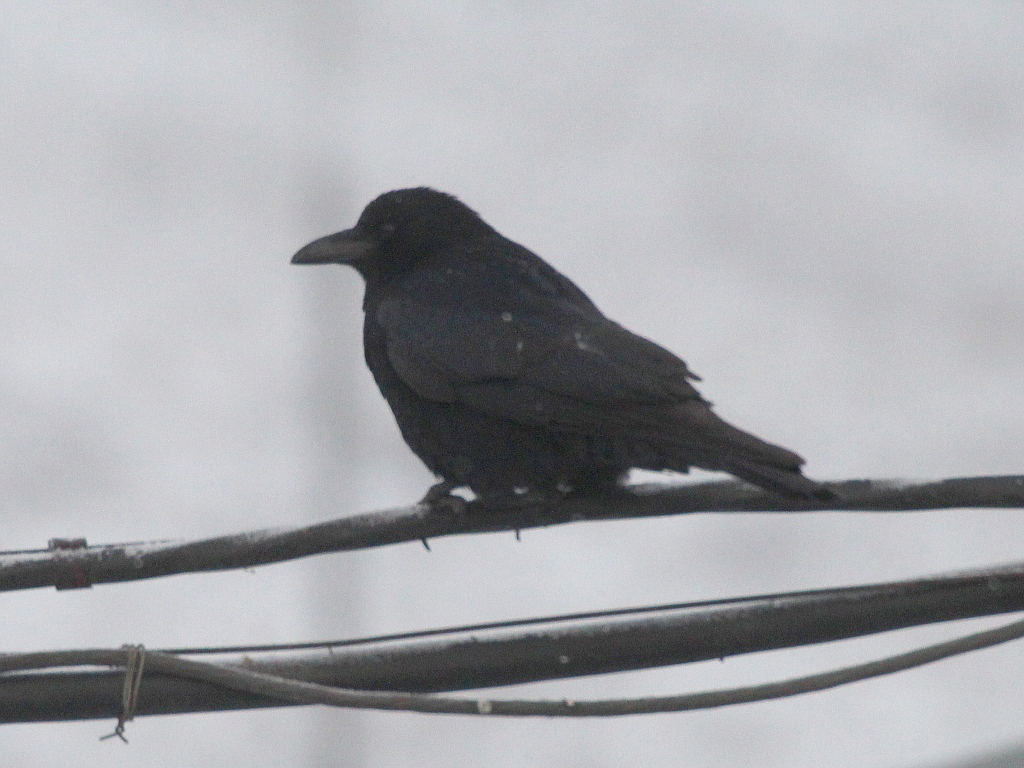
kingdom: Animalia
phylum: Chordata
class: Aves
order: Passeriformes
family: Corvidae
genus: Corvus
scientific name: Corvus corone
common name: Carrion crow
